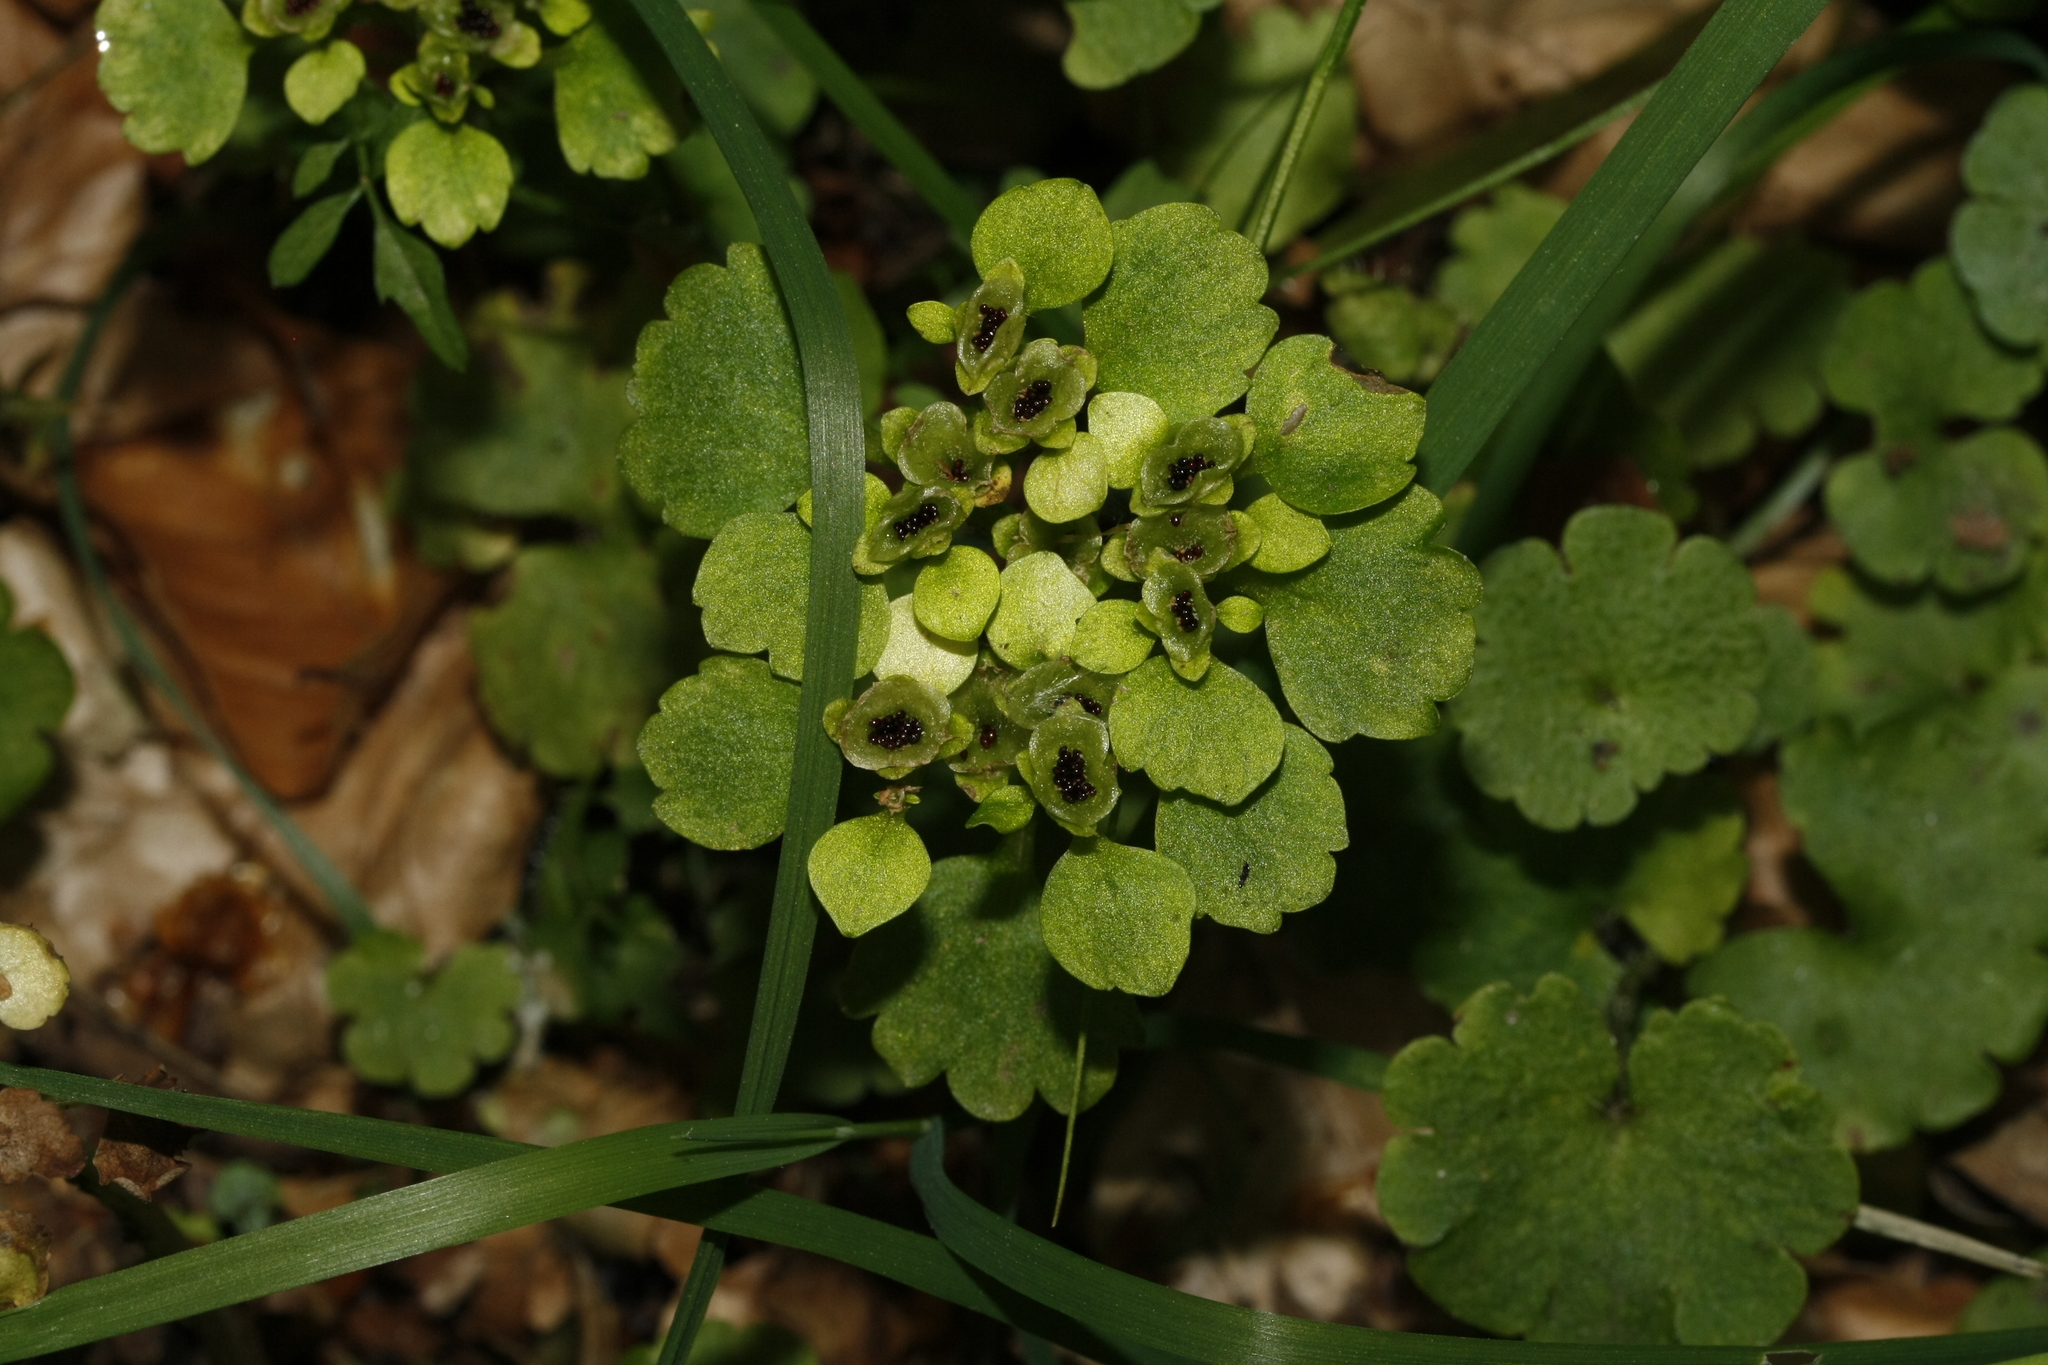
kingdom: Plantae
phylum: Tracheophyta
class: Magnoliopsida
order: Saxifragales
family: Saxifragaceae
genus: Chrysosplenium
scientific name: Chrysosplenium alternifolium
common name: Alternate-leaved golden-saxifrage
